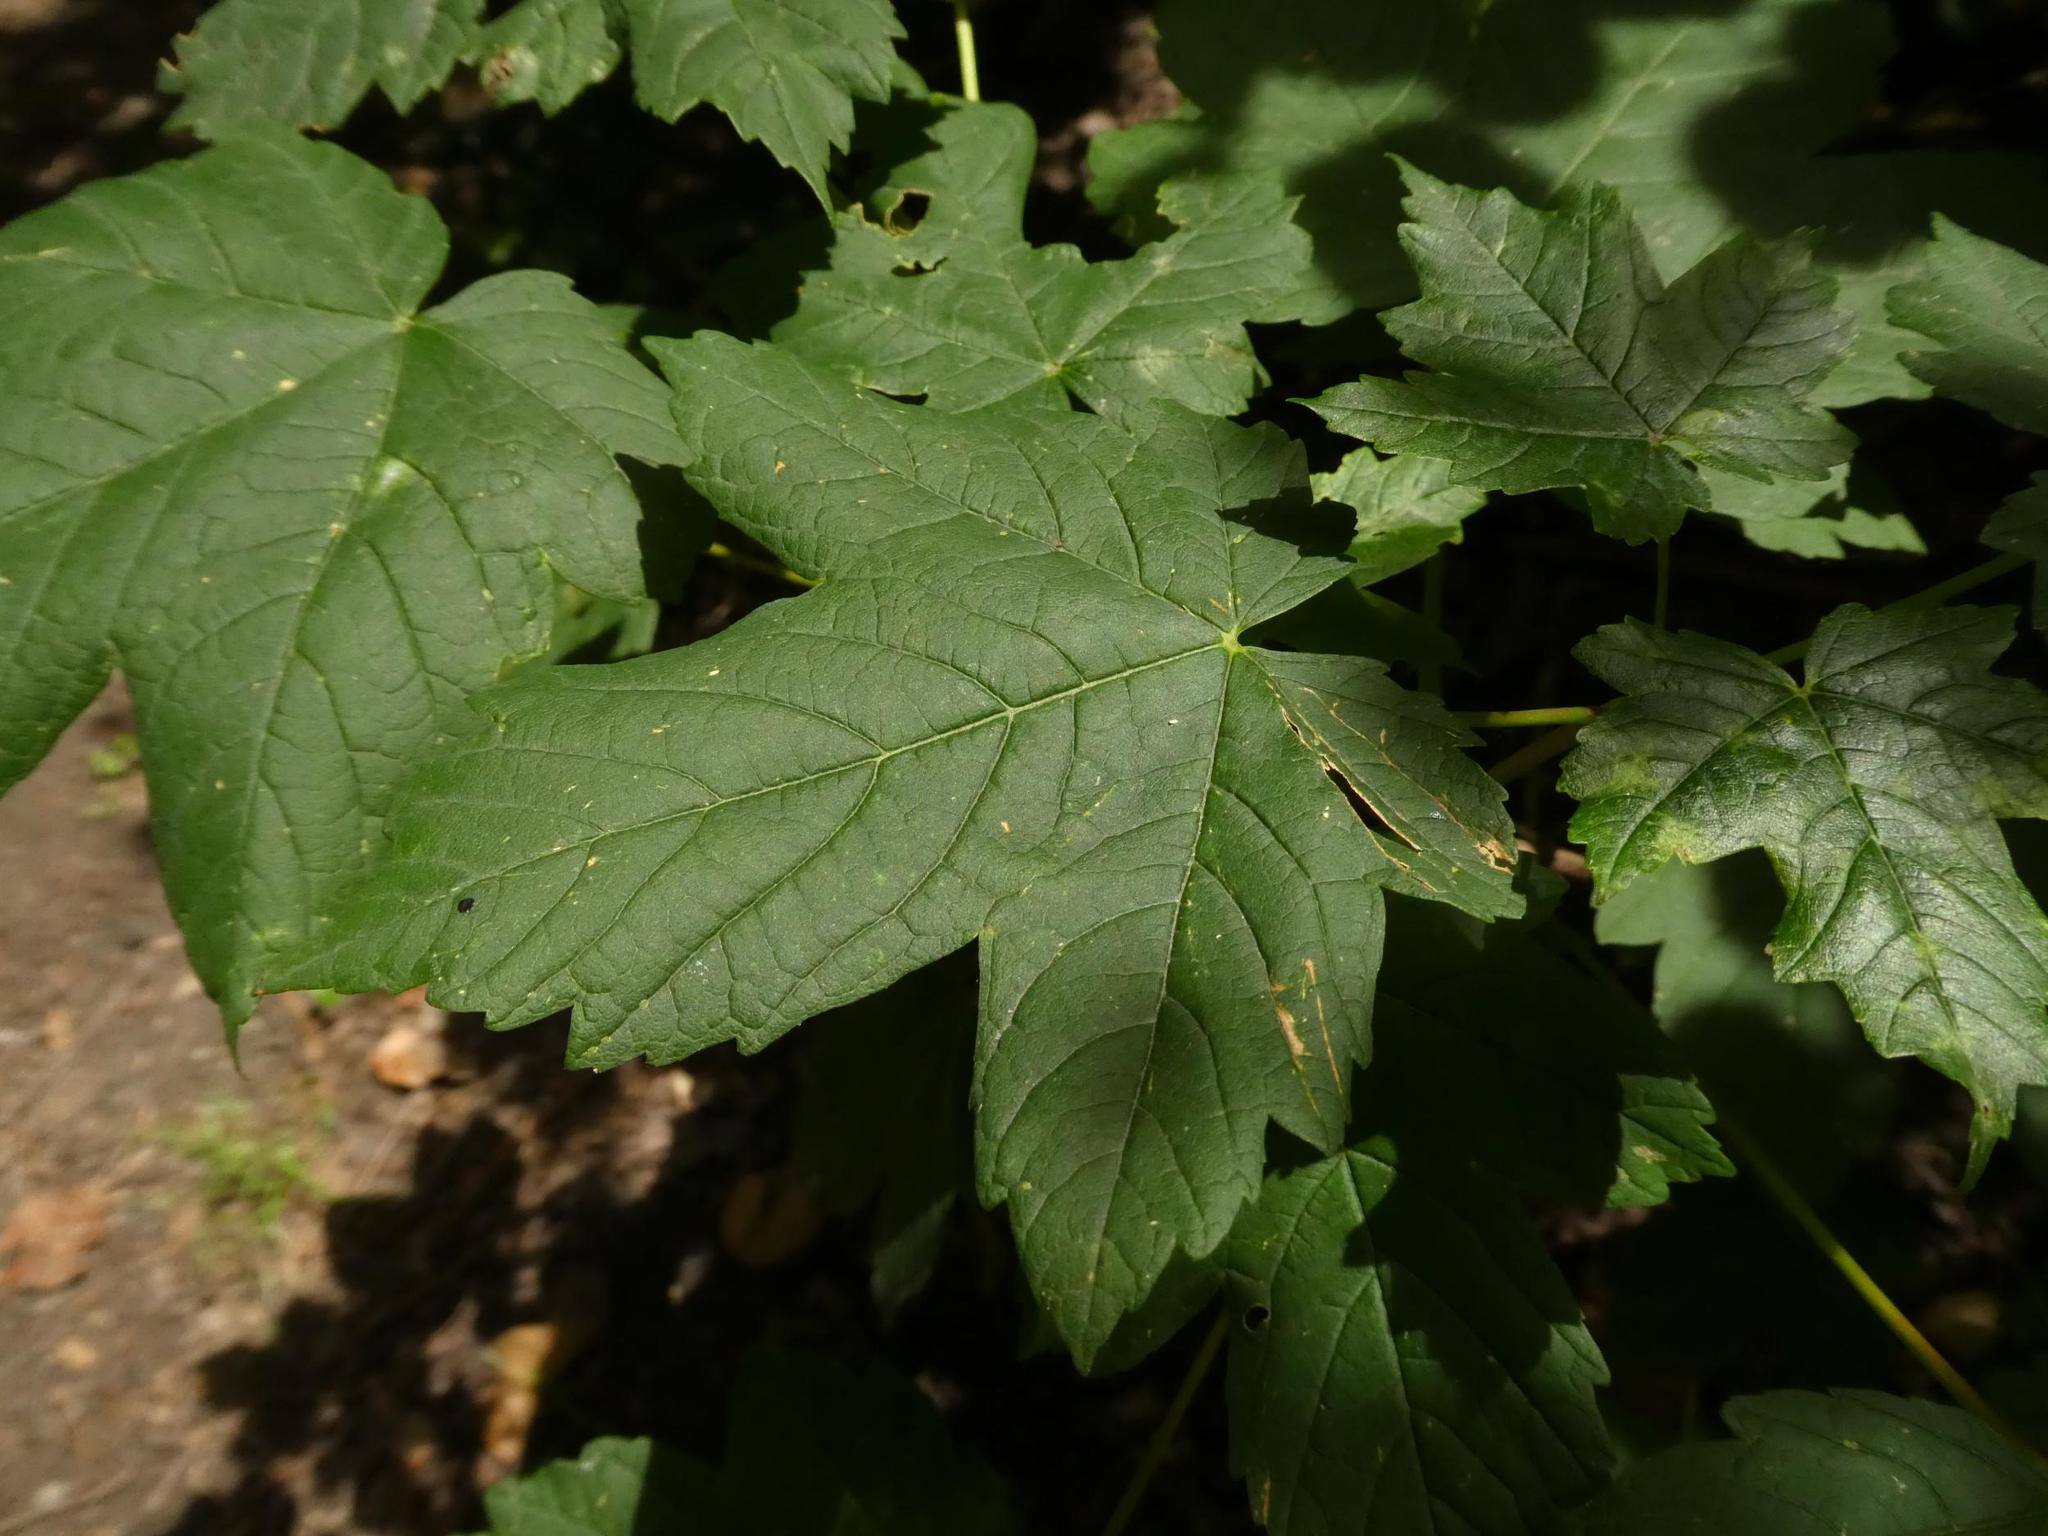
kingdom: Plantae
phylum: Tracheophyta
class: Magnoliopsida
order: Sapindales
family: Sapindaceae
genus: Acer
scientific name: Acer pseudoplatanus
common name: Sycamore
